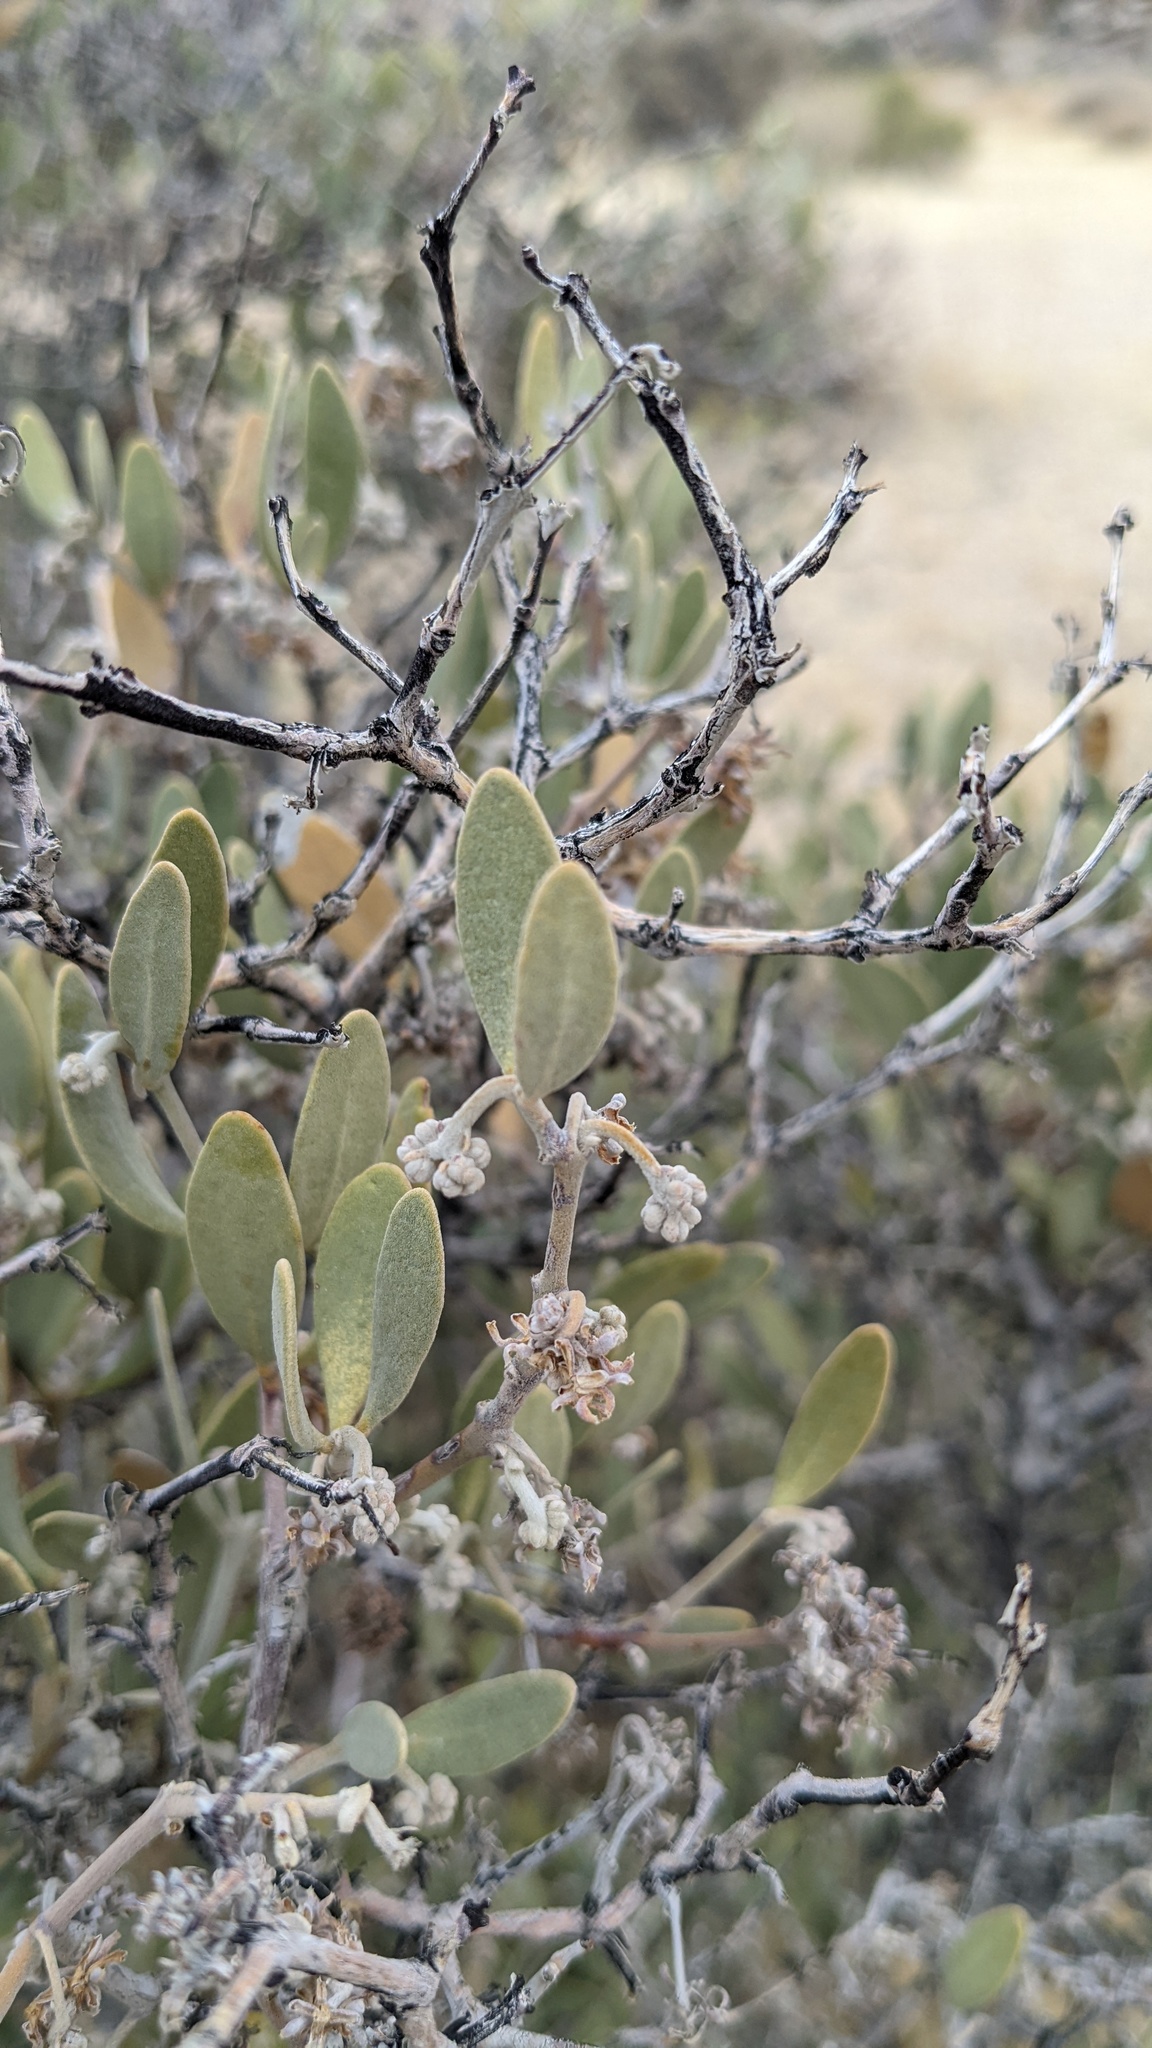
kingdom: Plantae
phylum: Tracheophyta
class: Magnoliopsida
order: Caryophyllales
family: Simmondsiaceae
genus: Simmondsia
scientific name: Simmondsia chinensis
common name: Jojoba
